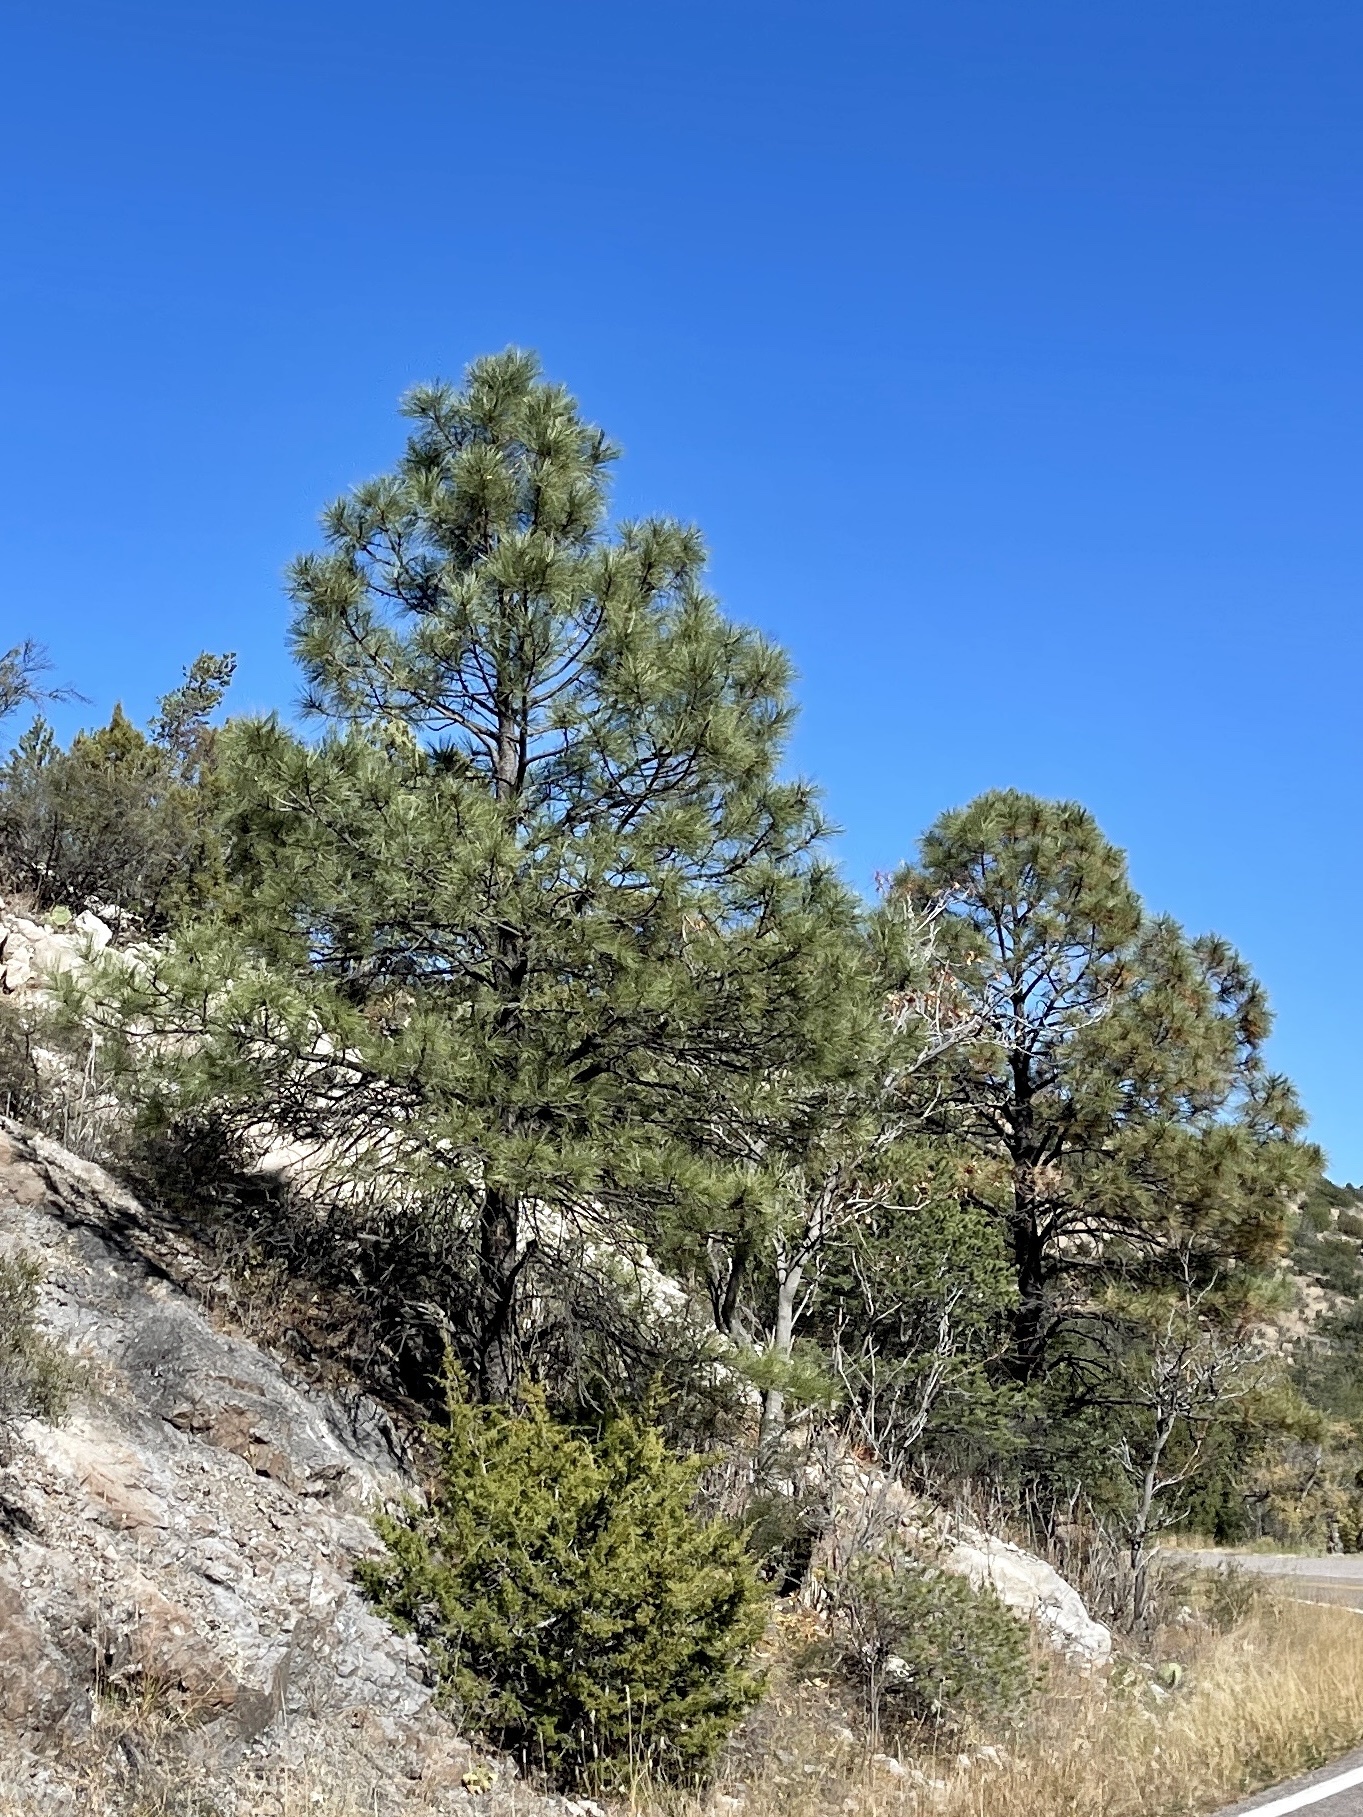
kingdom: Plantae
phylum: Tracheophyta
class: Pinopsida
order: Pinales
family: Pinaceae
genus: Pinus
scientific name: Pinus ponderosa
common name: Western yellow-pine
